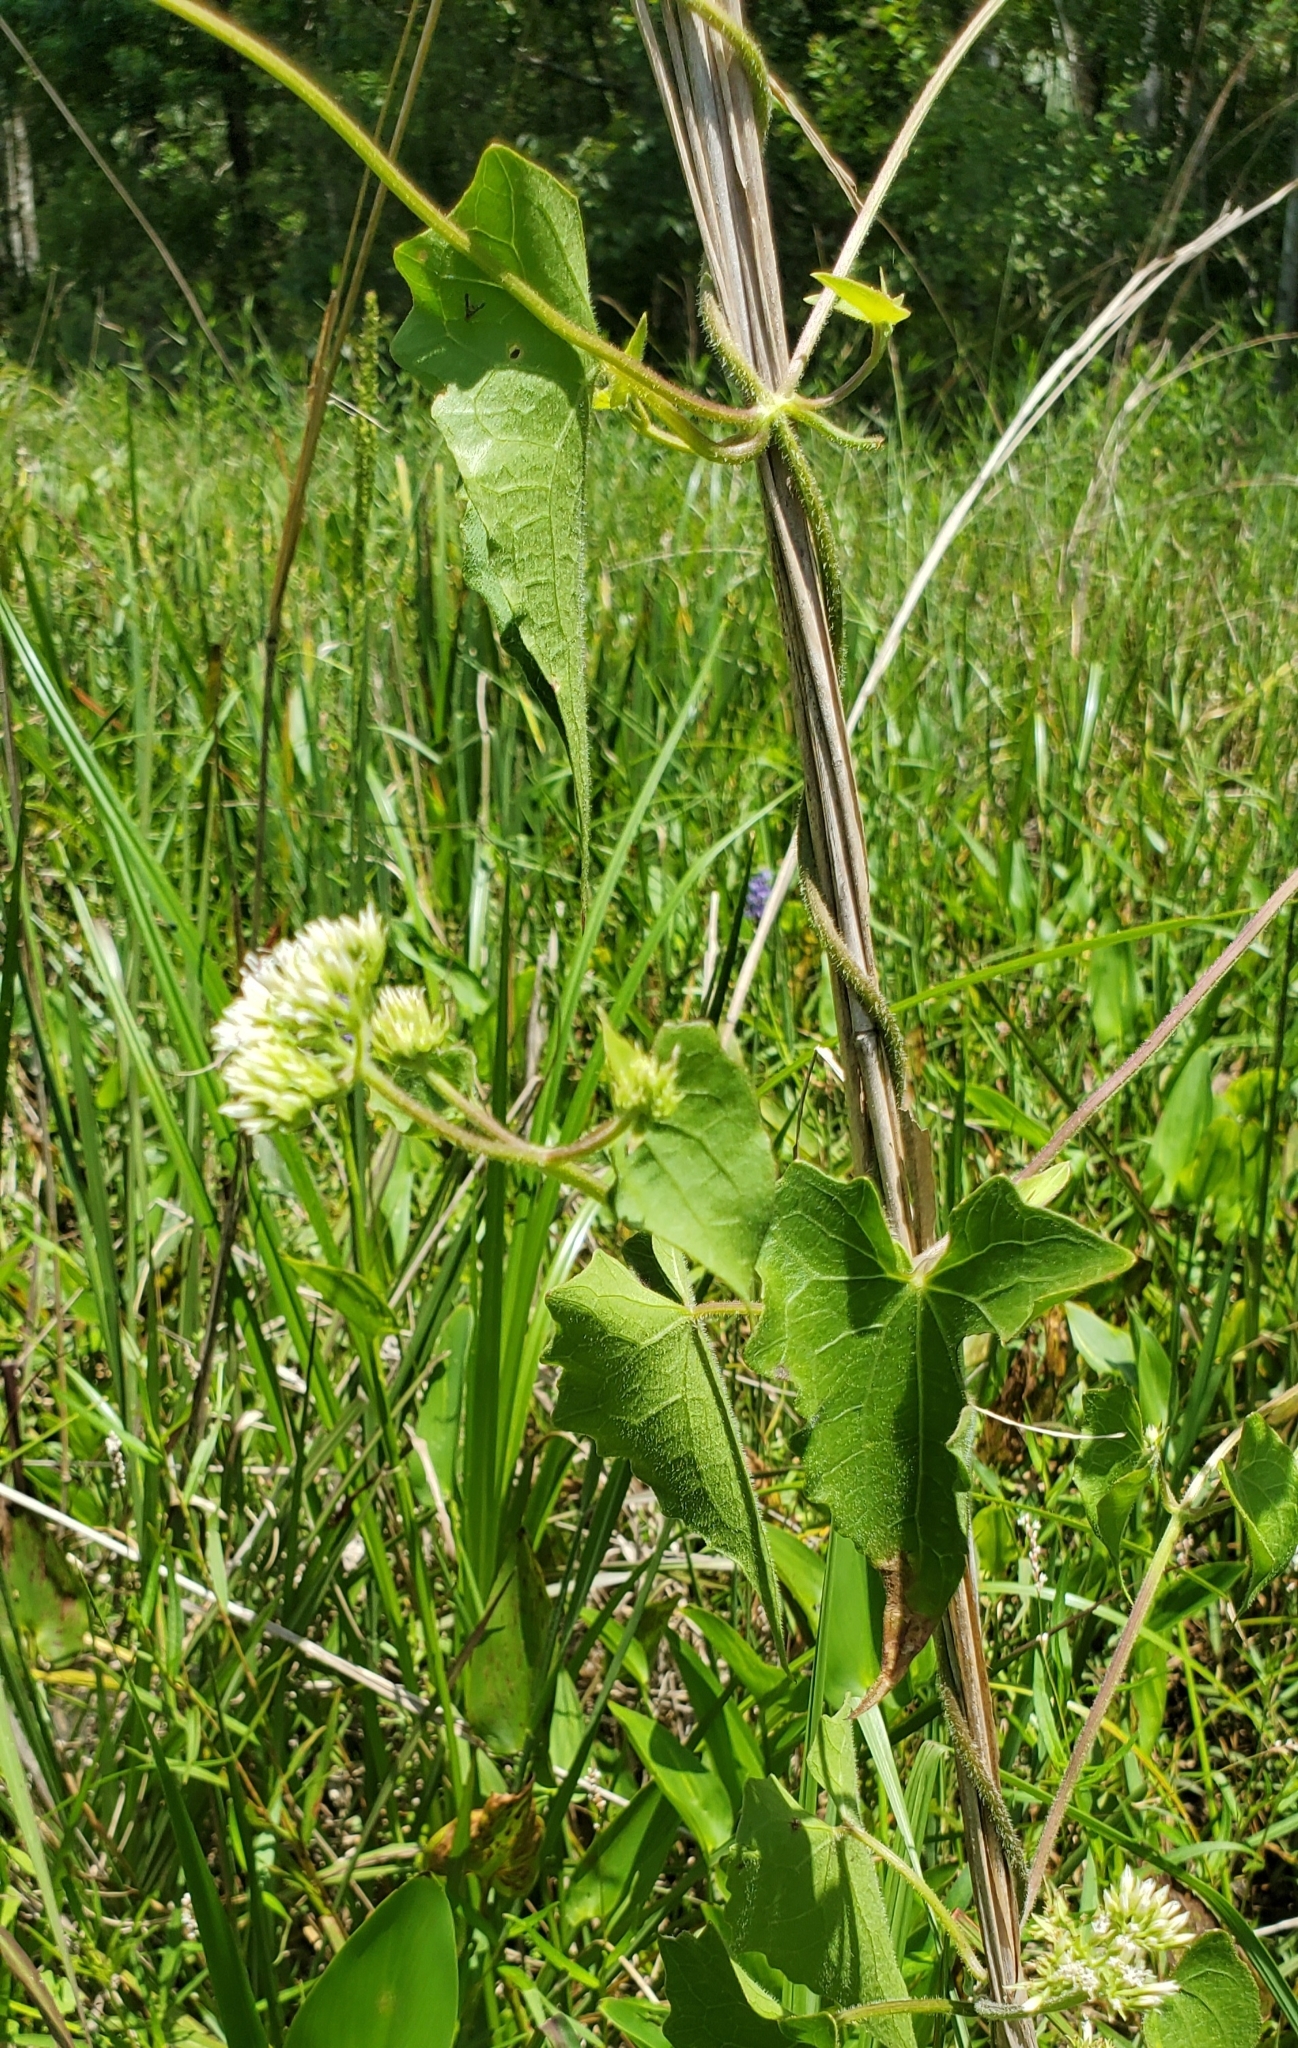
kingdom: Plantae
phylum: Tracheophyta
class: Magnoliopsida
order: Asterales
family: Asteraceae
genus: Mikania
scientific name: Mikania scandens
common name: Climbing hempvine
